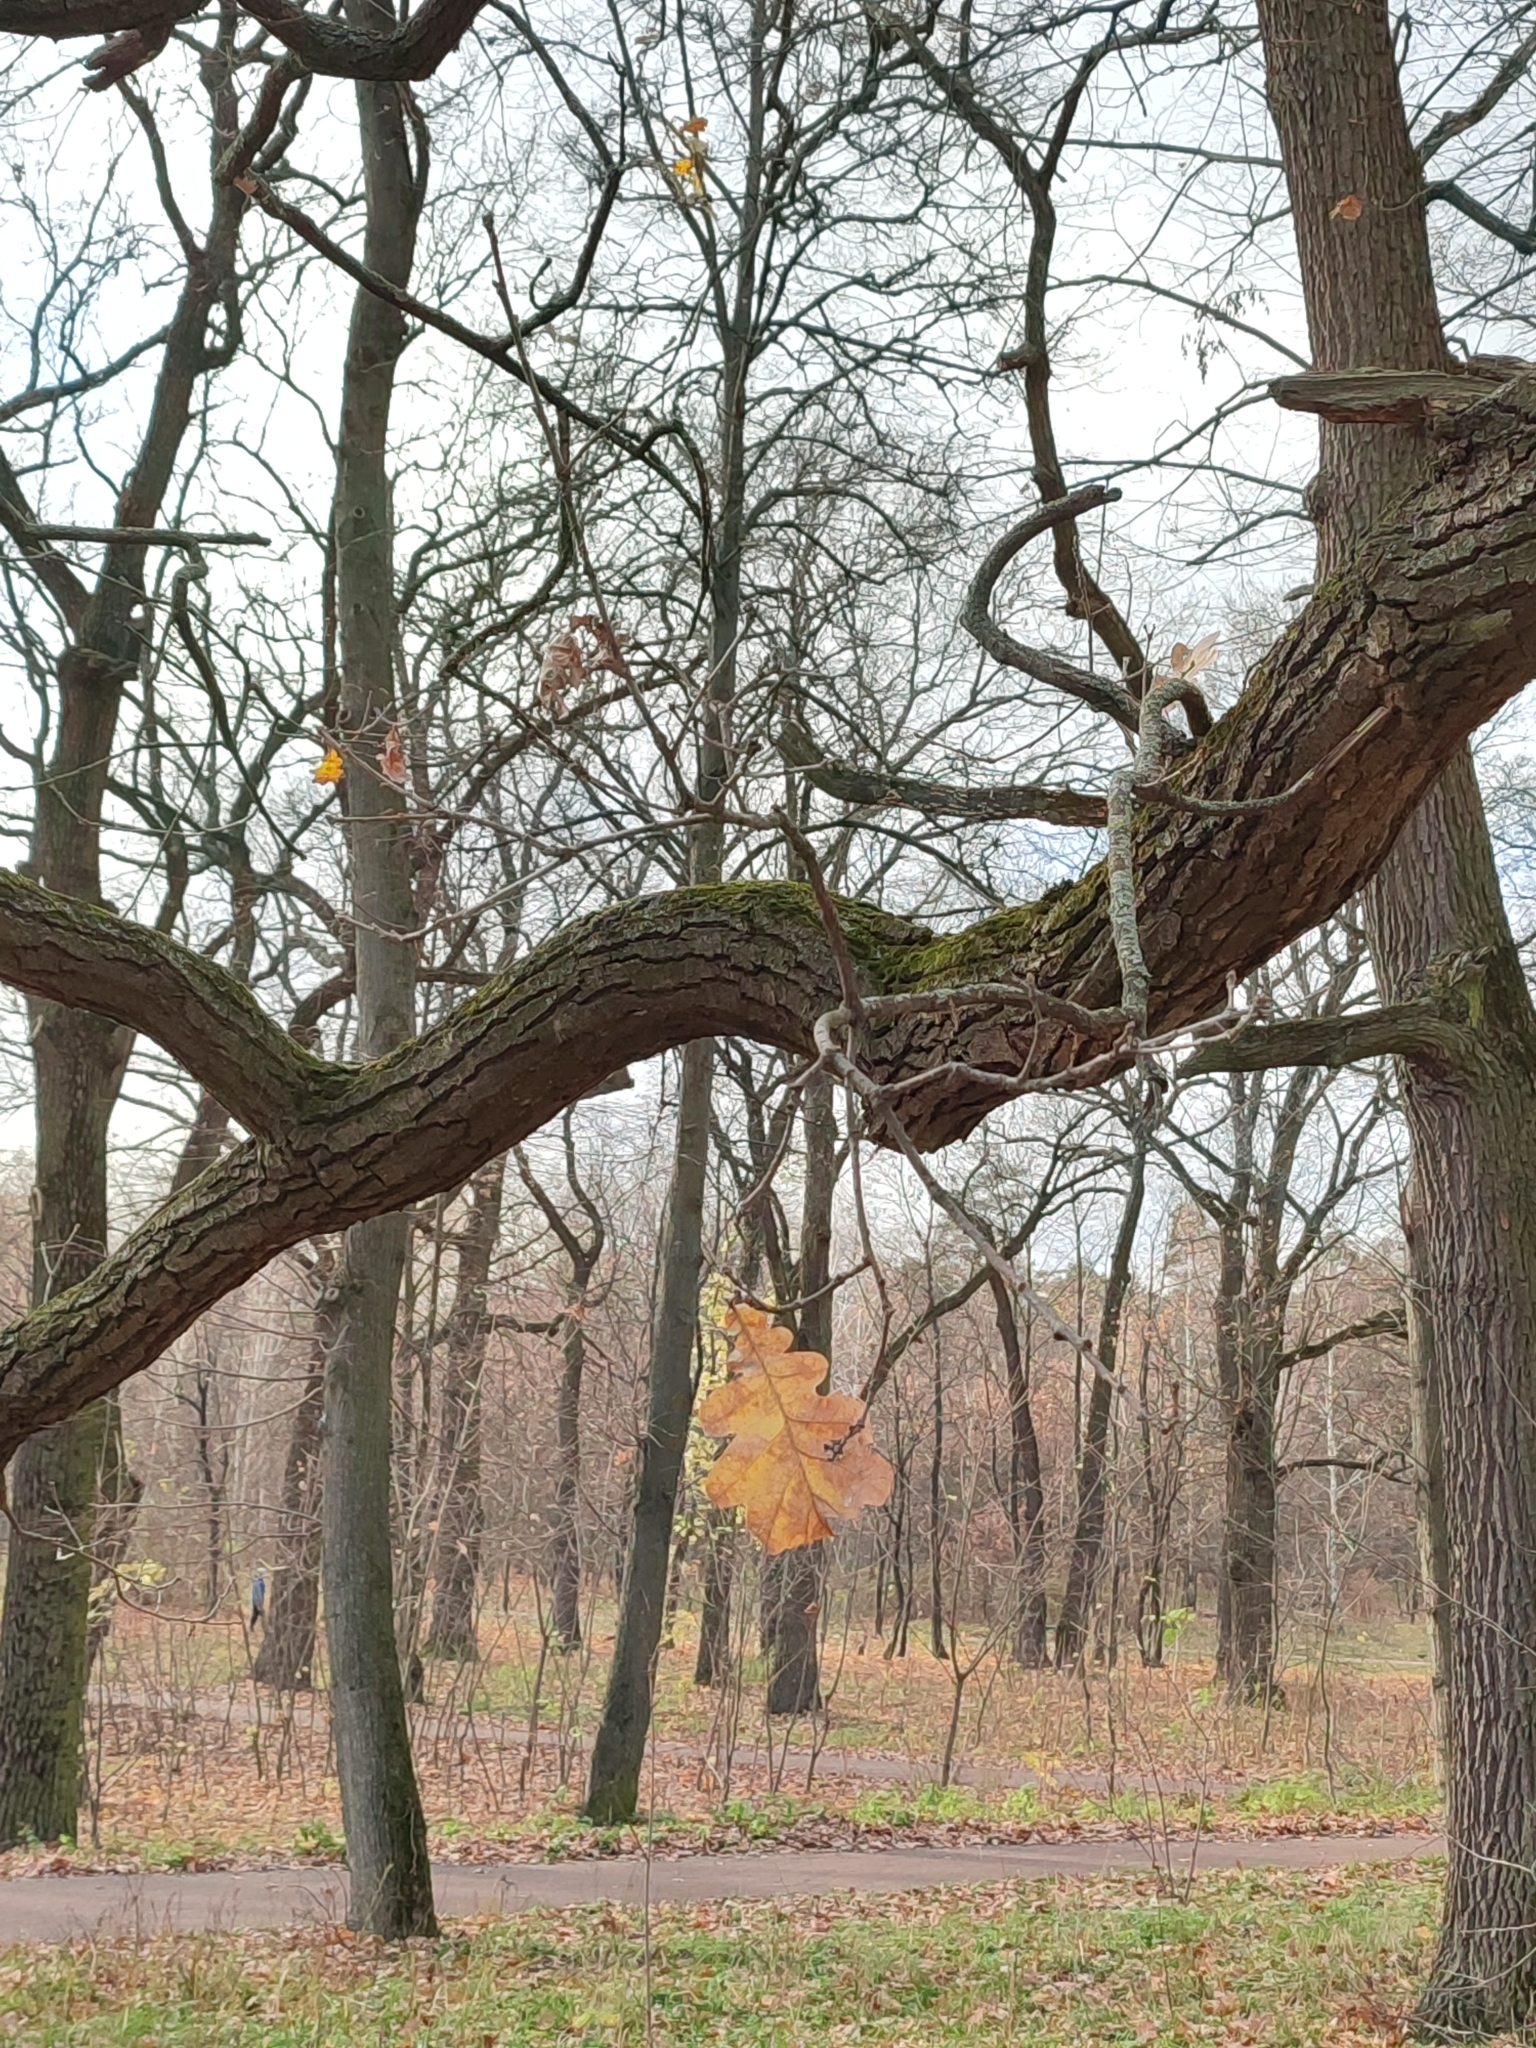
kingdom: Plantae
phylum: Tracheophyta
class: Magnoliopsida
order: Fagales
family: Fagaceae
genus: Quercus
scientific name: Quercus robur
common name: Pedunculate oak
